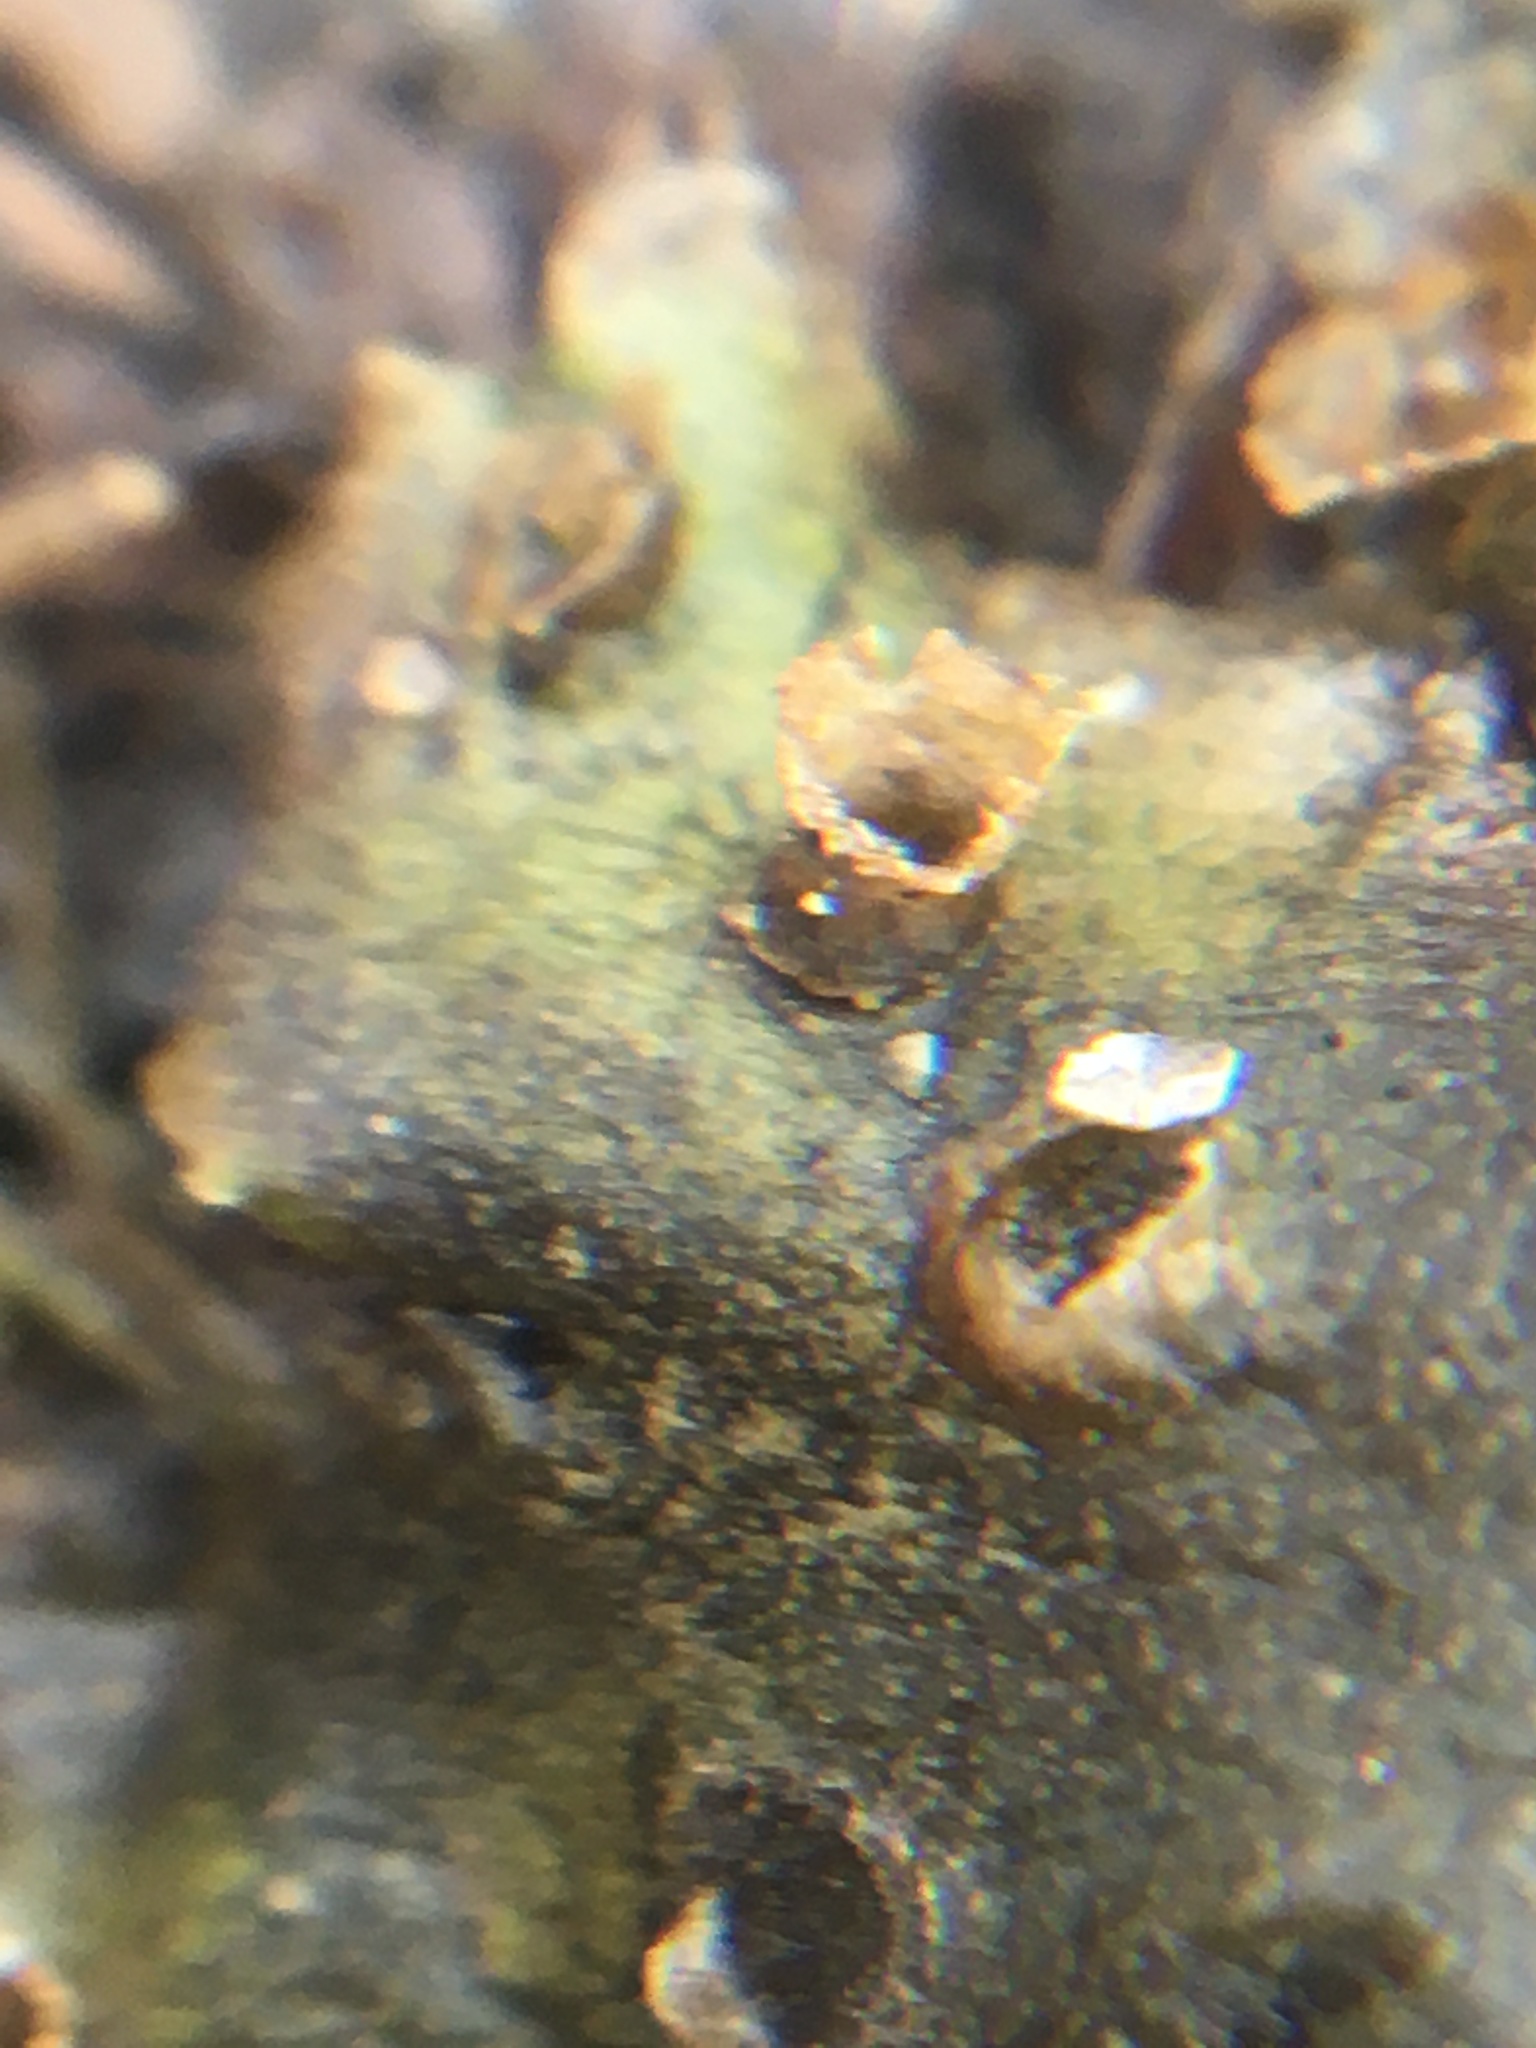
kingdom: Plantae
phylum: Marchantiophyta
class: Marchantiopsida
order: Marchantiales
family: Marchantiaceae
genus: Marchantia
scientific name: Marchantia polymorpha
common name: Common liverwort
